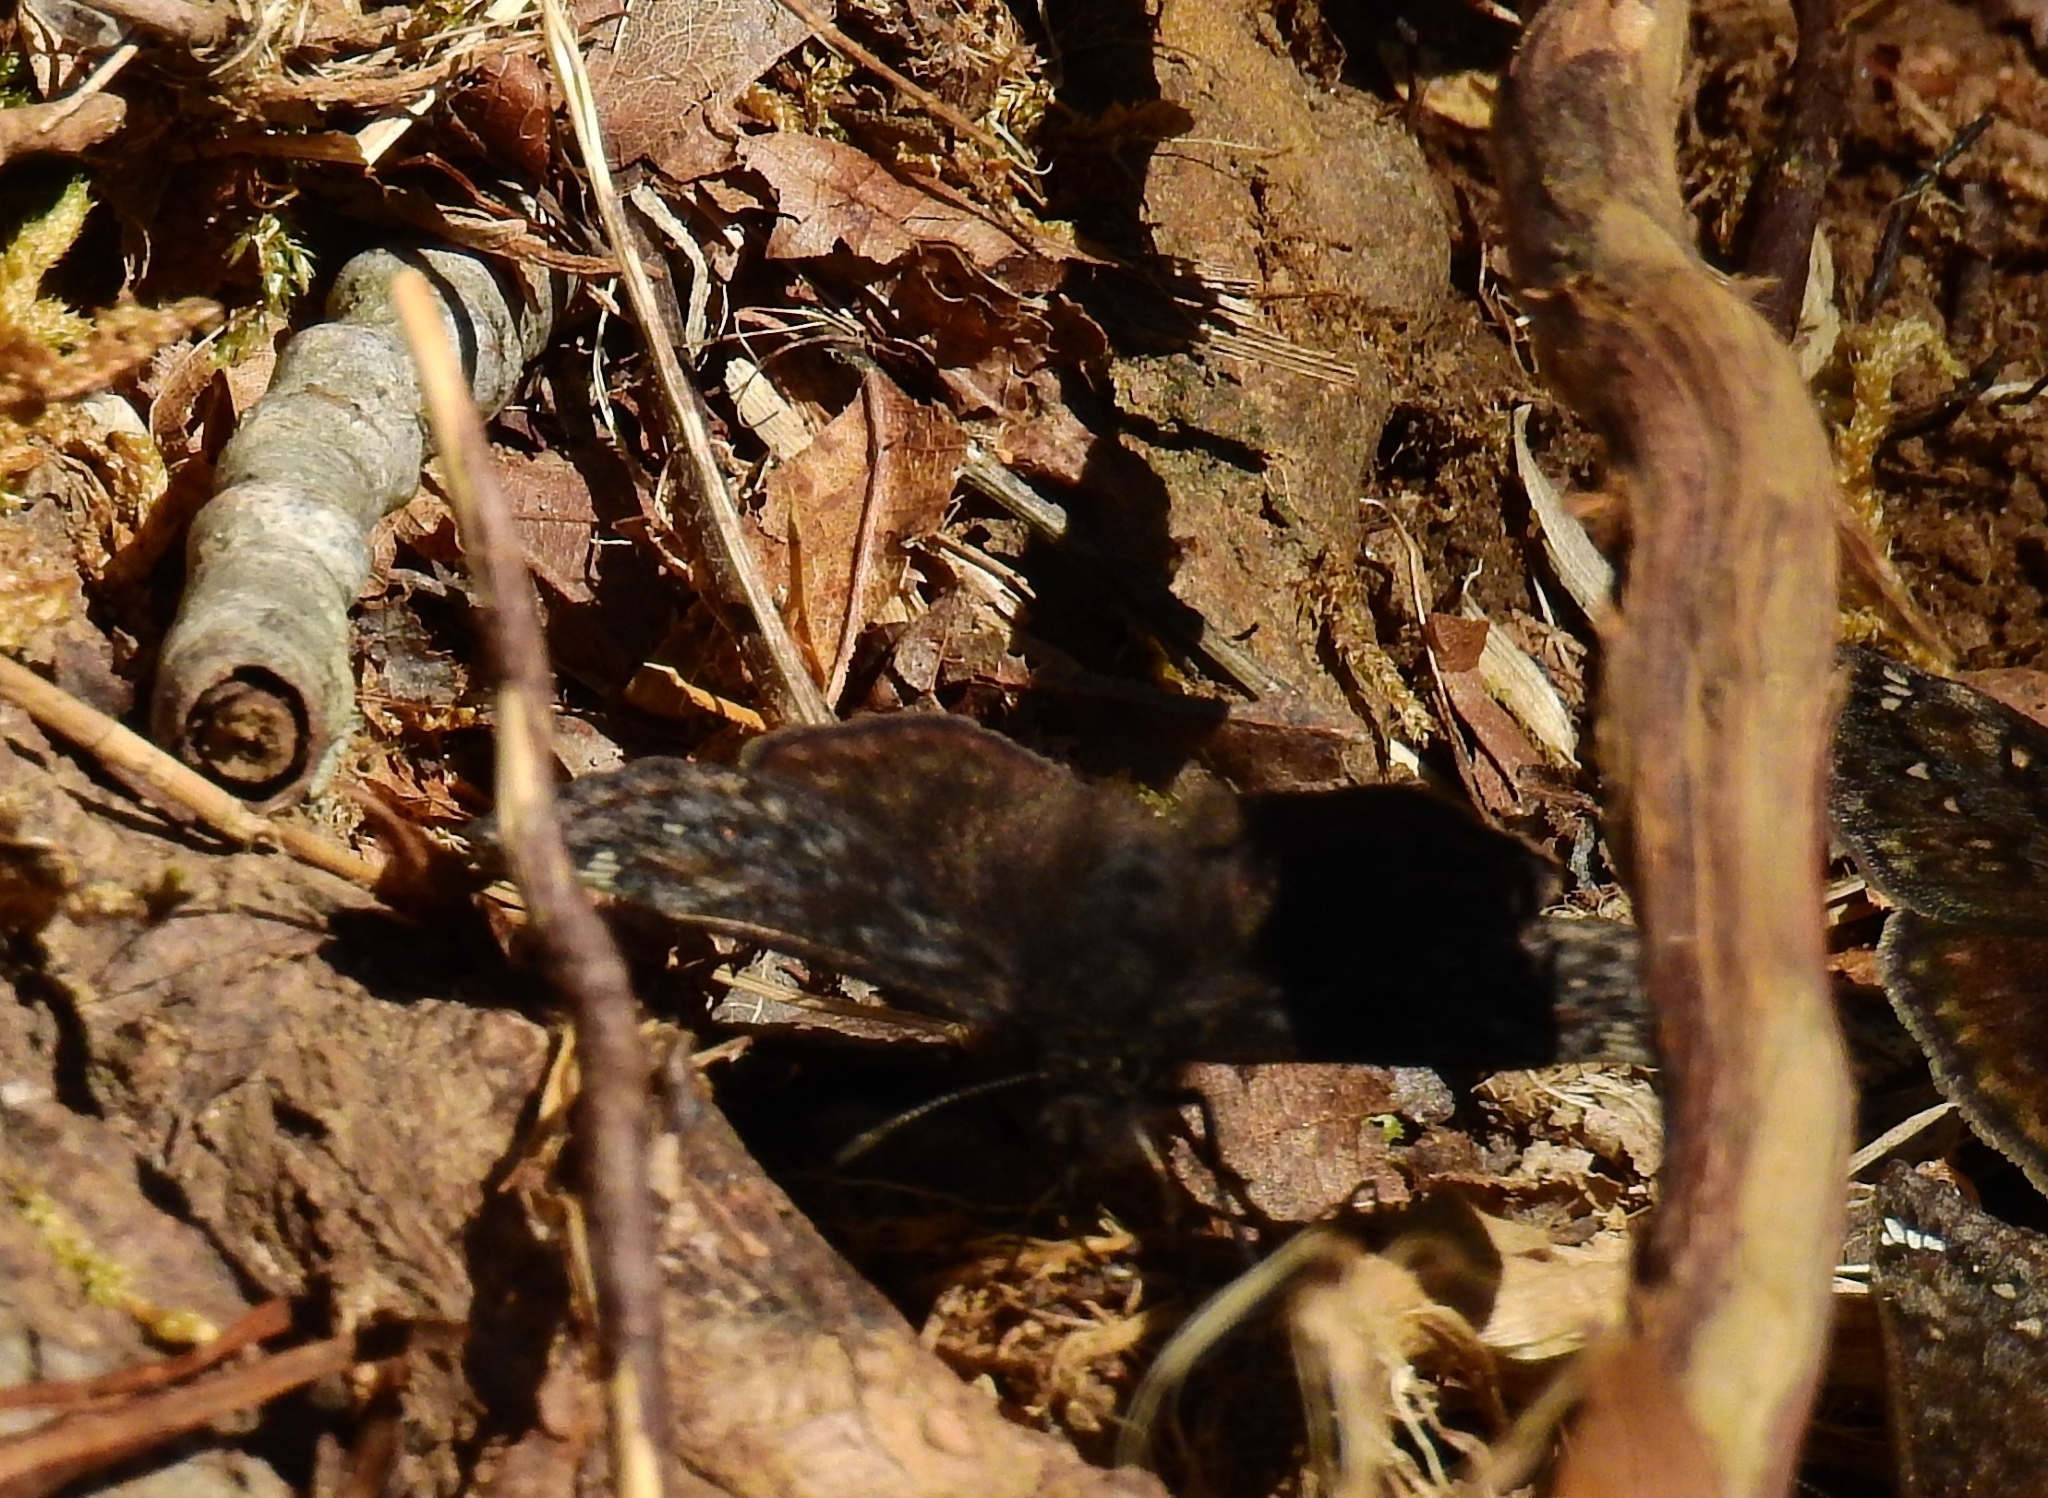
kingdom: Animalia
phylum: Arthropoda
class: Insecta
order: Lepidoptera
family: Hesperiidae
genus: Erynnis
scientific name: Erynnis juvenalis
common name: Juvenal's duskywing
